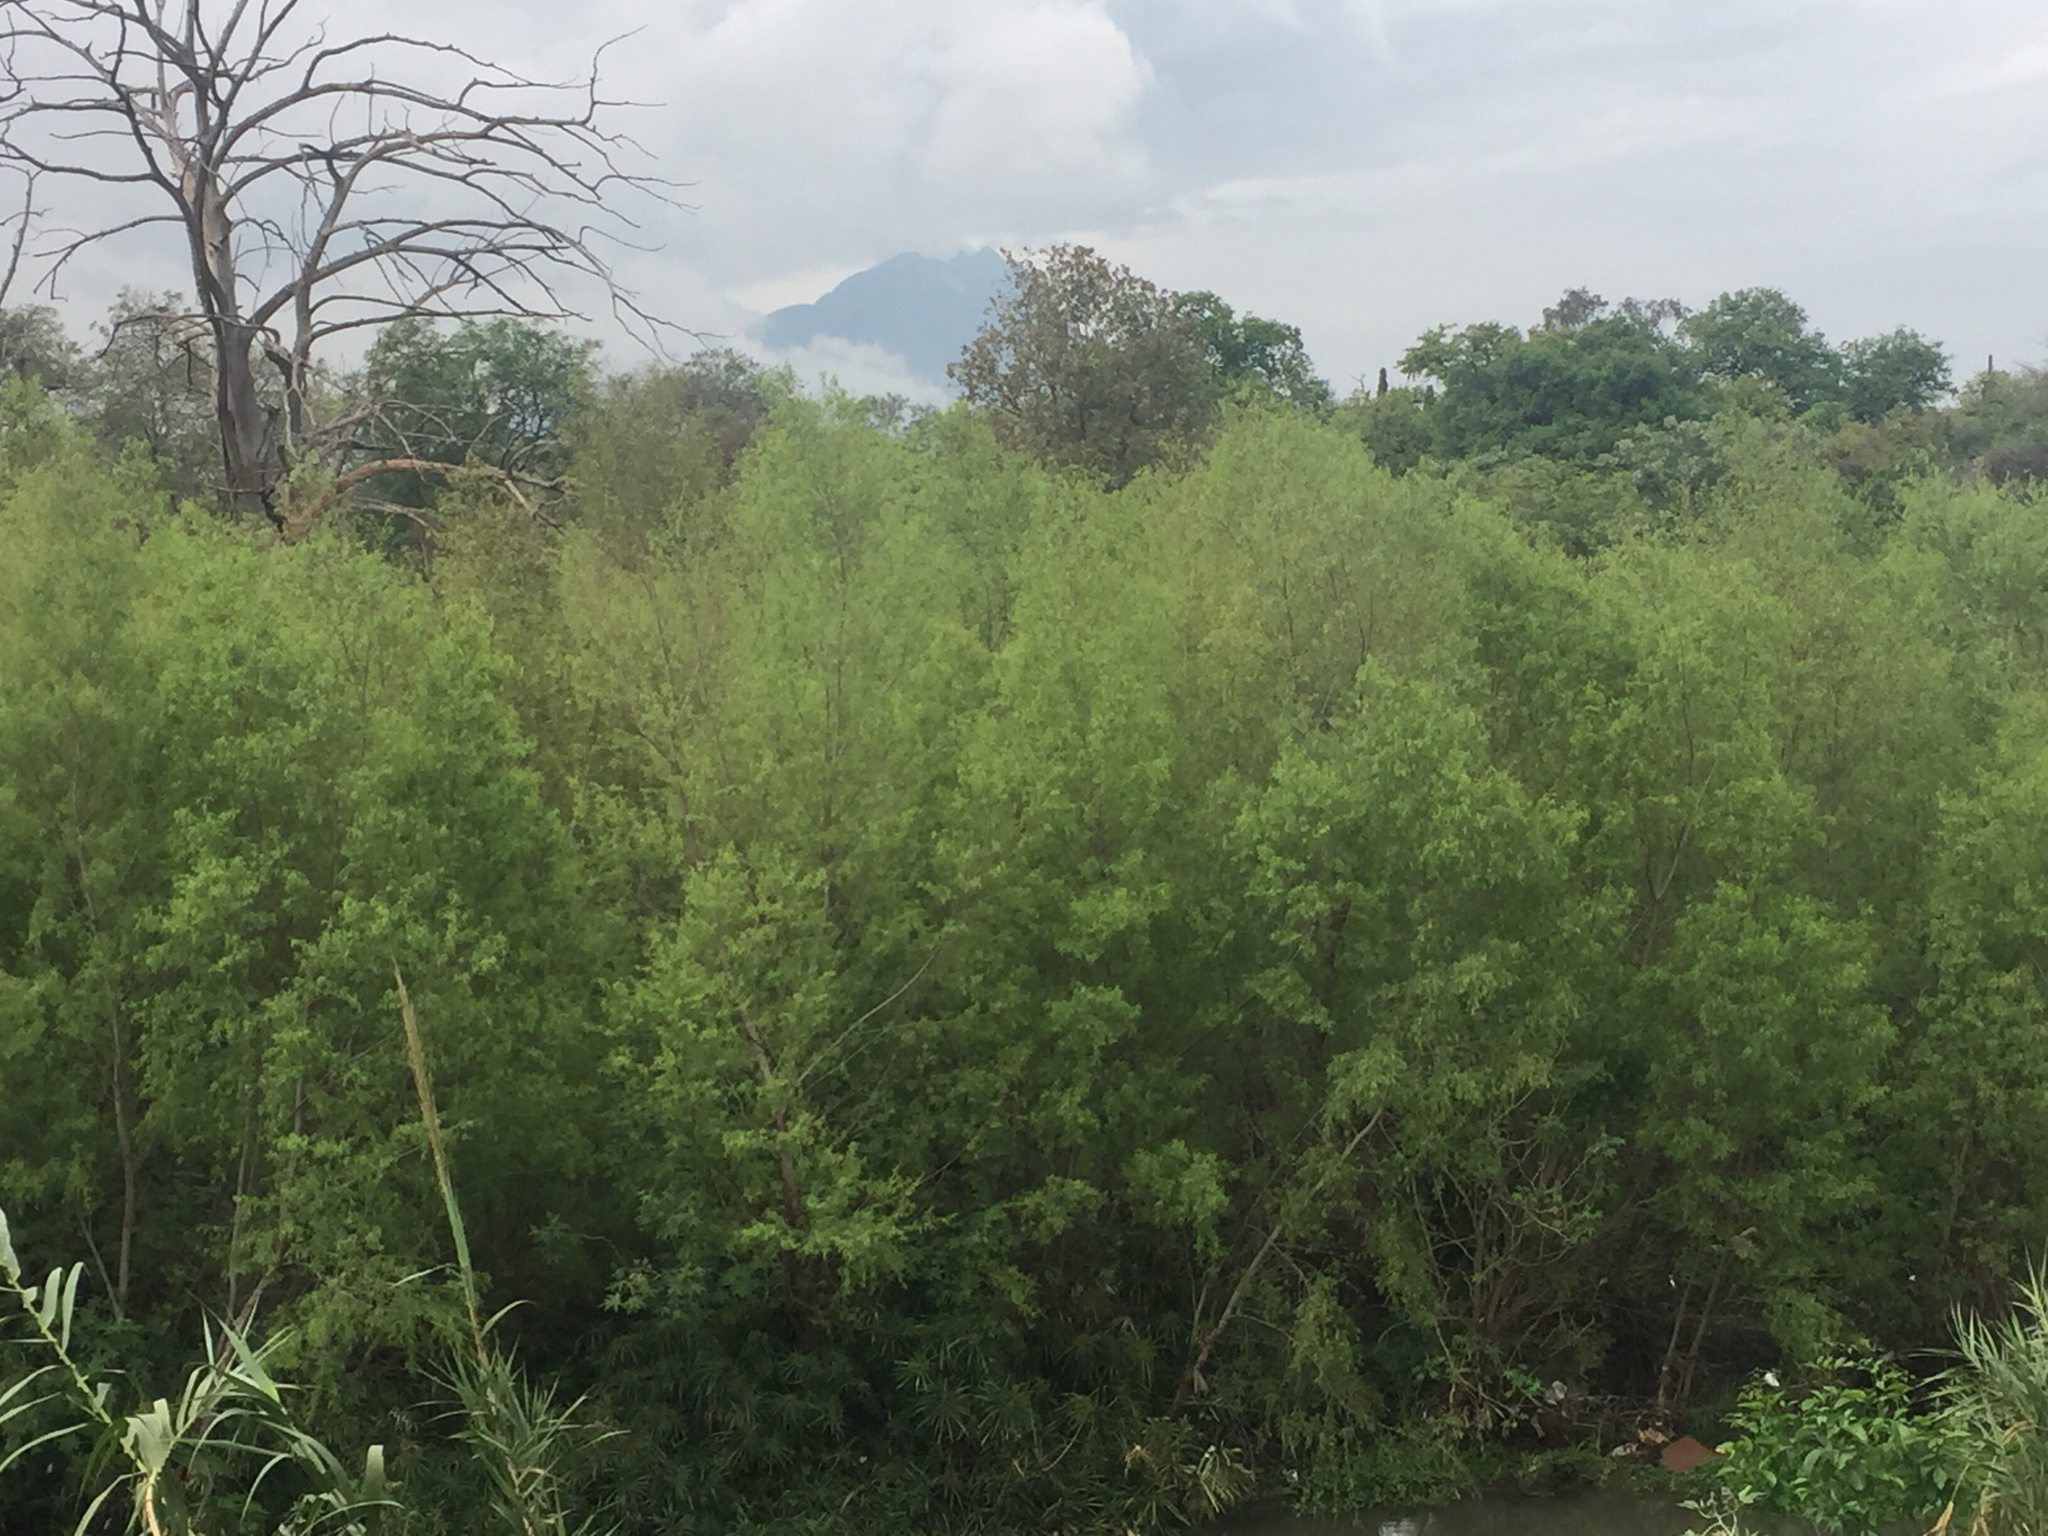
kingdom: Plantae
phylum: Tracheophyta
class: Magnoliopsida
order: Malpighiales
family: Salicaceae
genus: Salix
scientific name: Salix nigra
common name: Black willow
